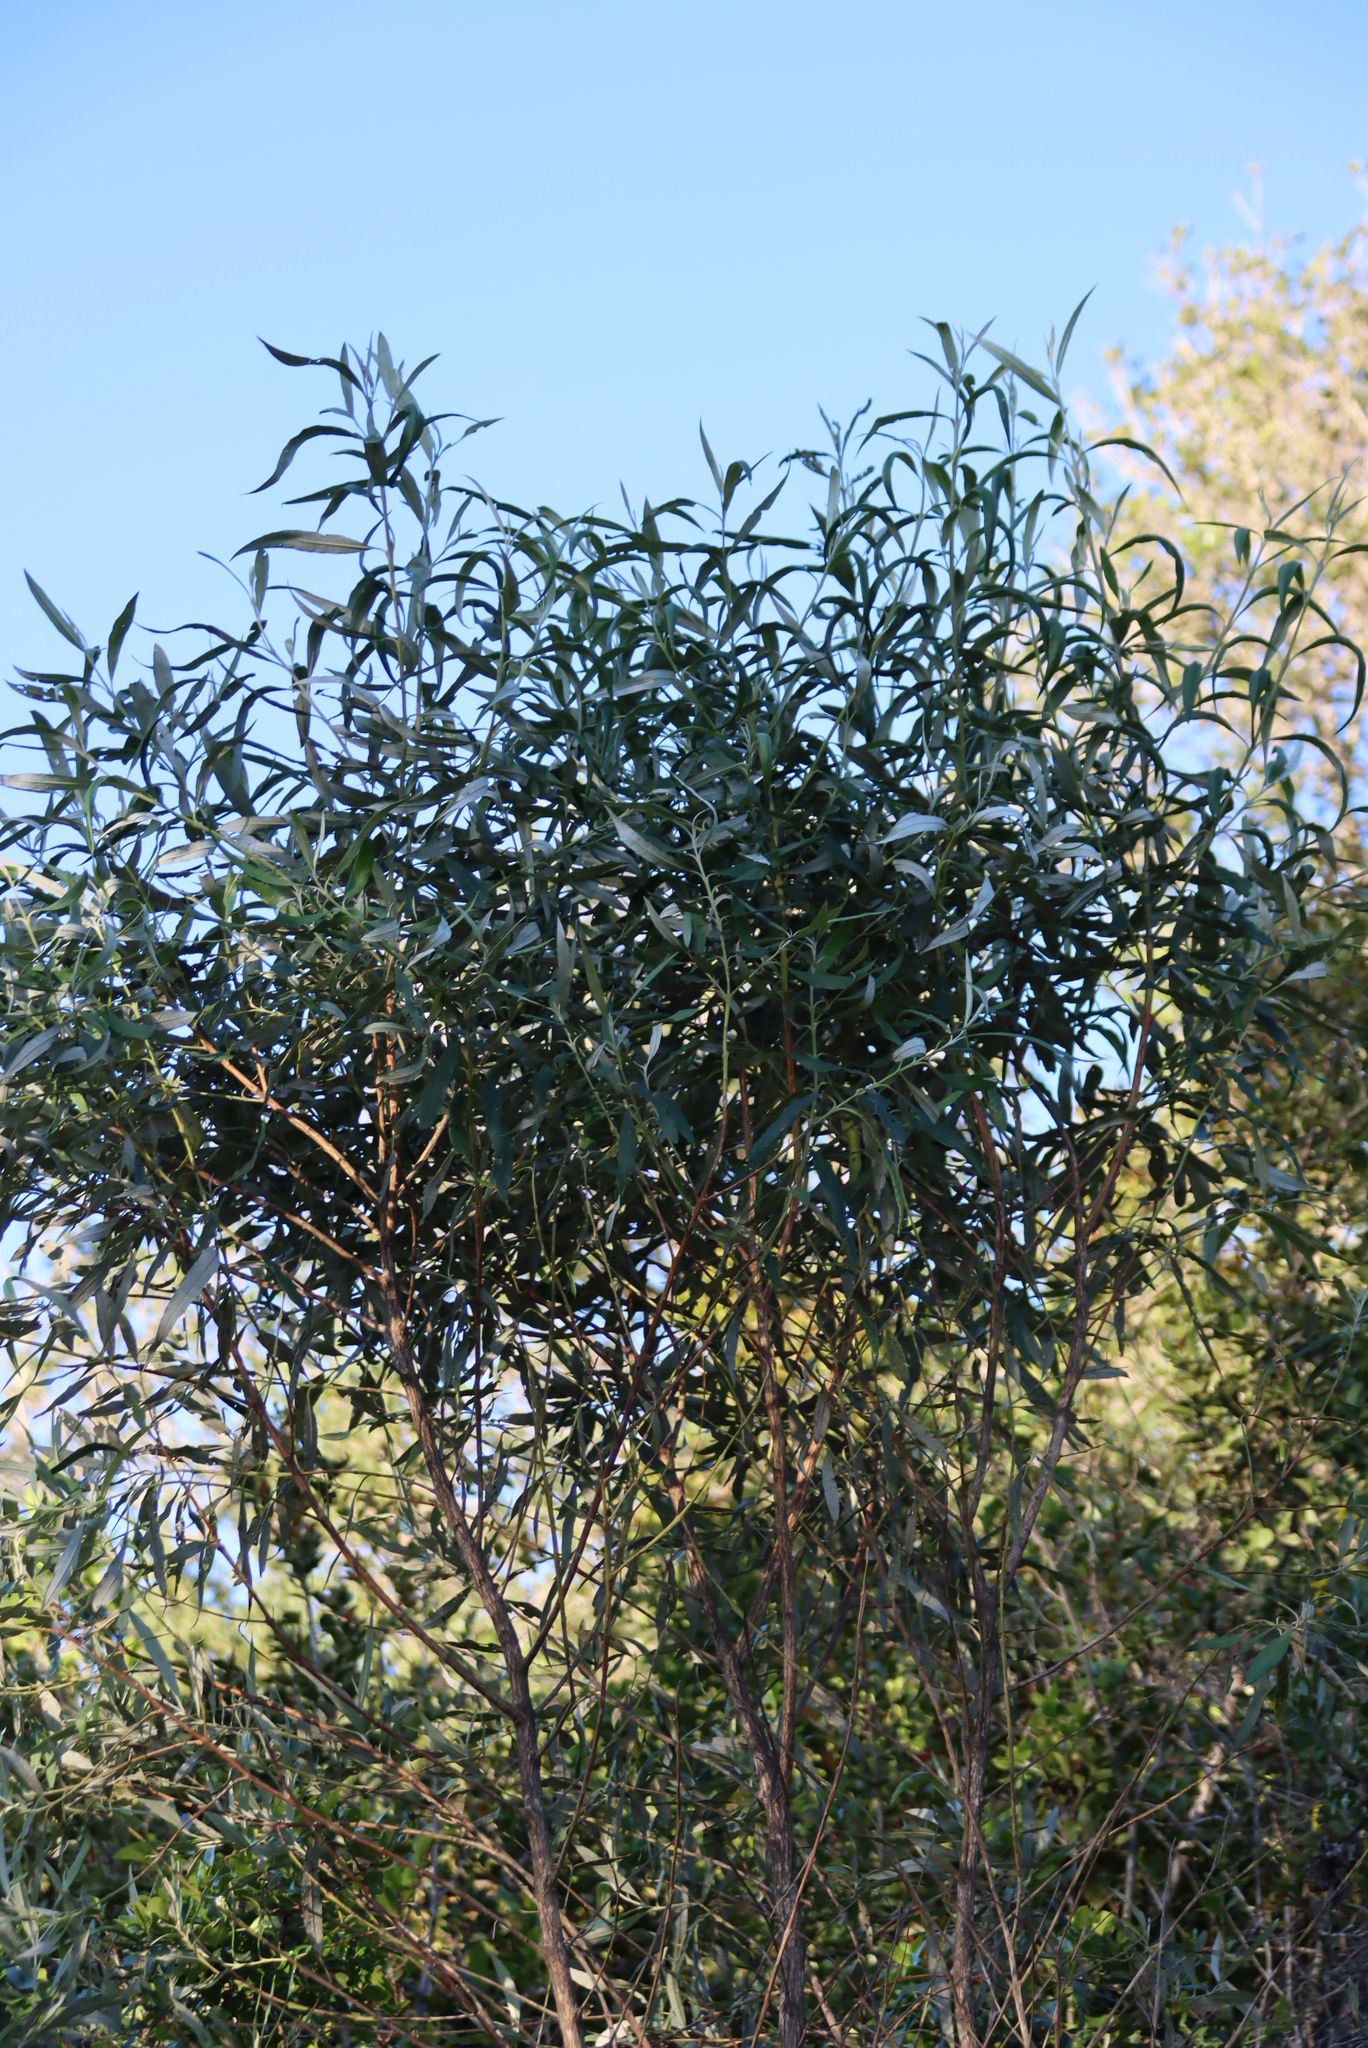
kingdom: Plantae
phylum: Tracheophyta
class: Magnoliopsida
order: Fabales
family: Fabaceae
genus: Acacia
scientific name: Acacia saligna
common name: Orange wattle
